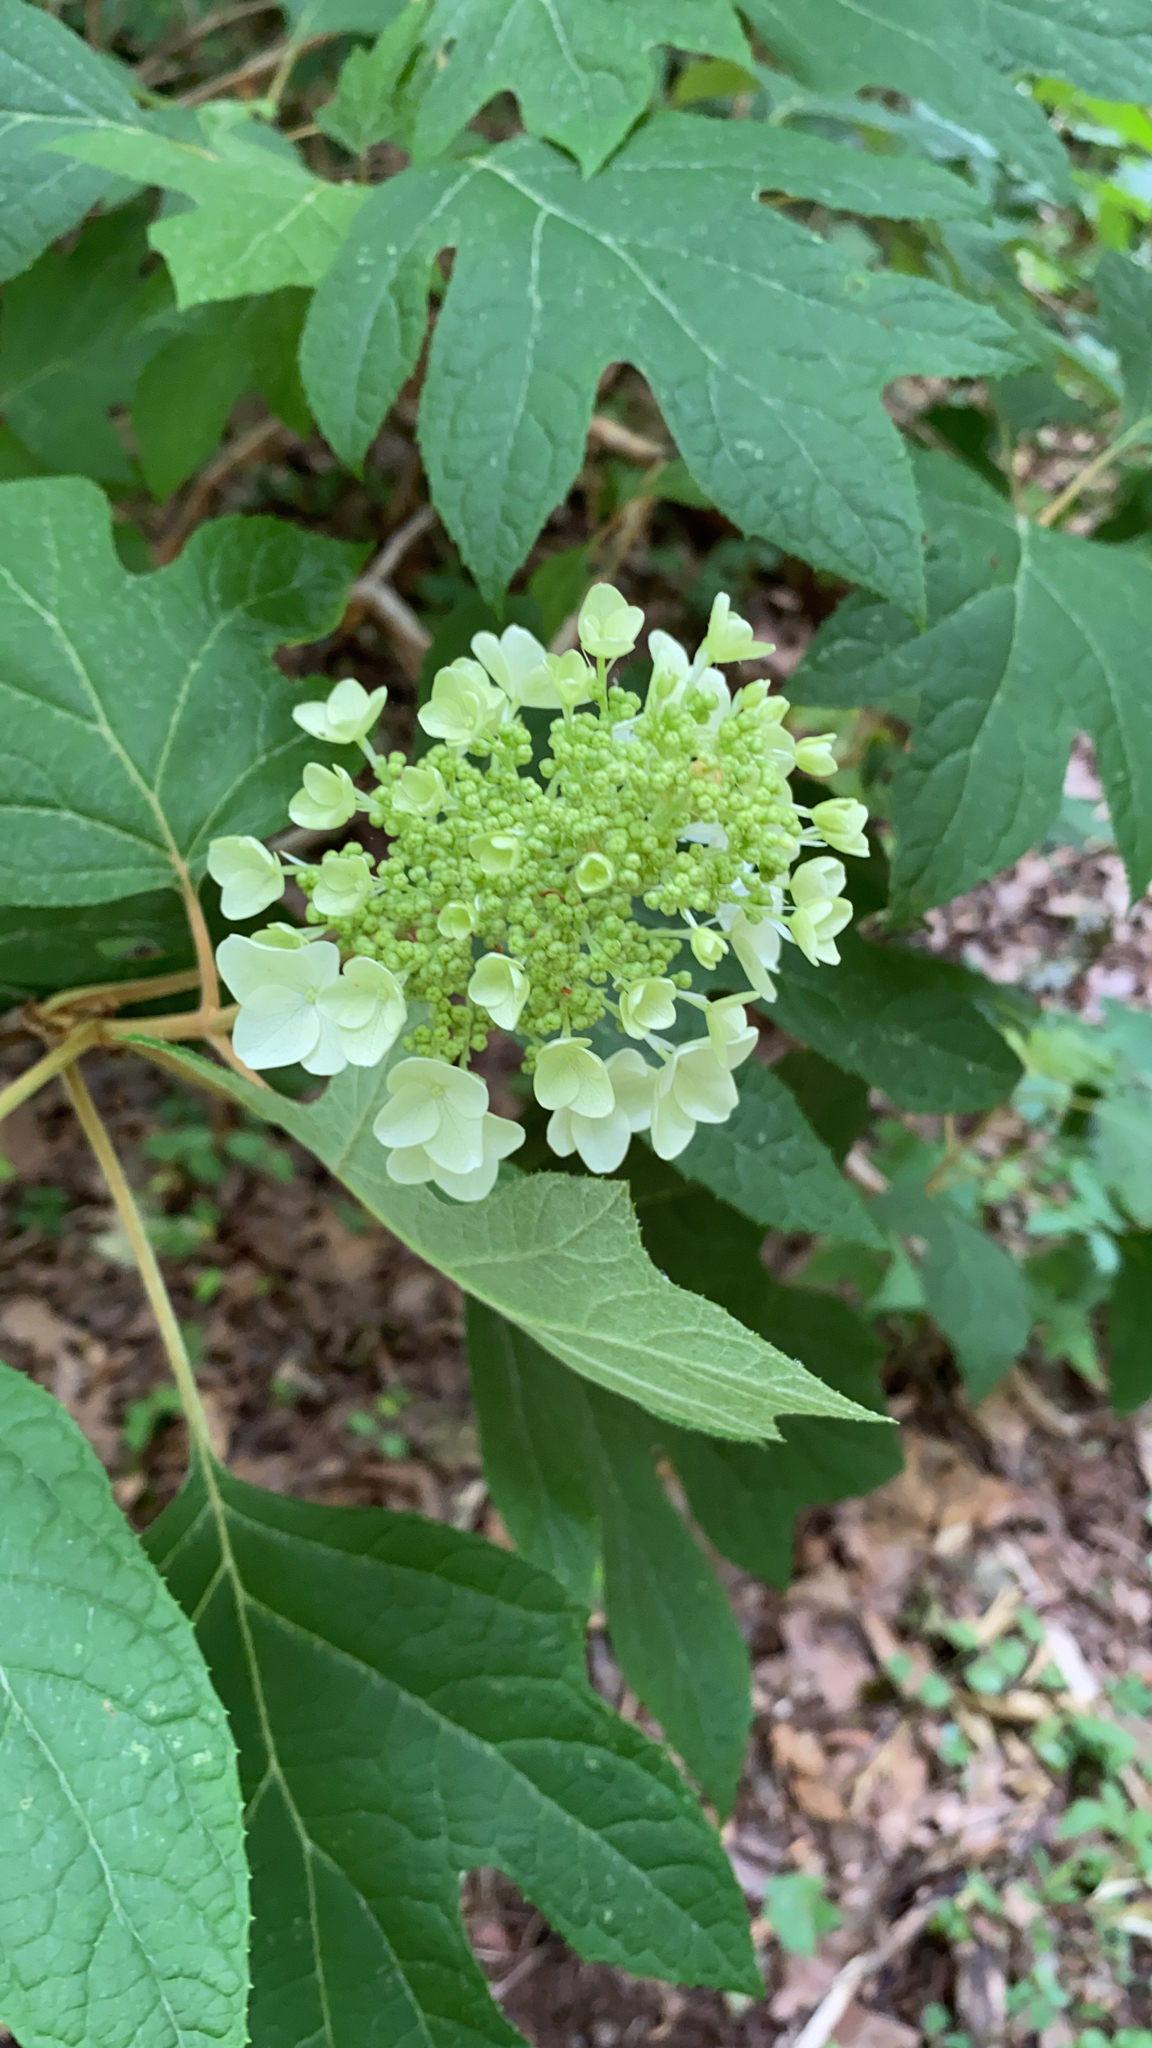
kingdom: Plantae
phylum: Tracheophyta
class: Magnoliopsida
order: Cornales
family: Hydrangeaceae
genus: Hydrangea
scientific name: Hydrangea quercifolia
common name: Oak-leaf hydrangea
